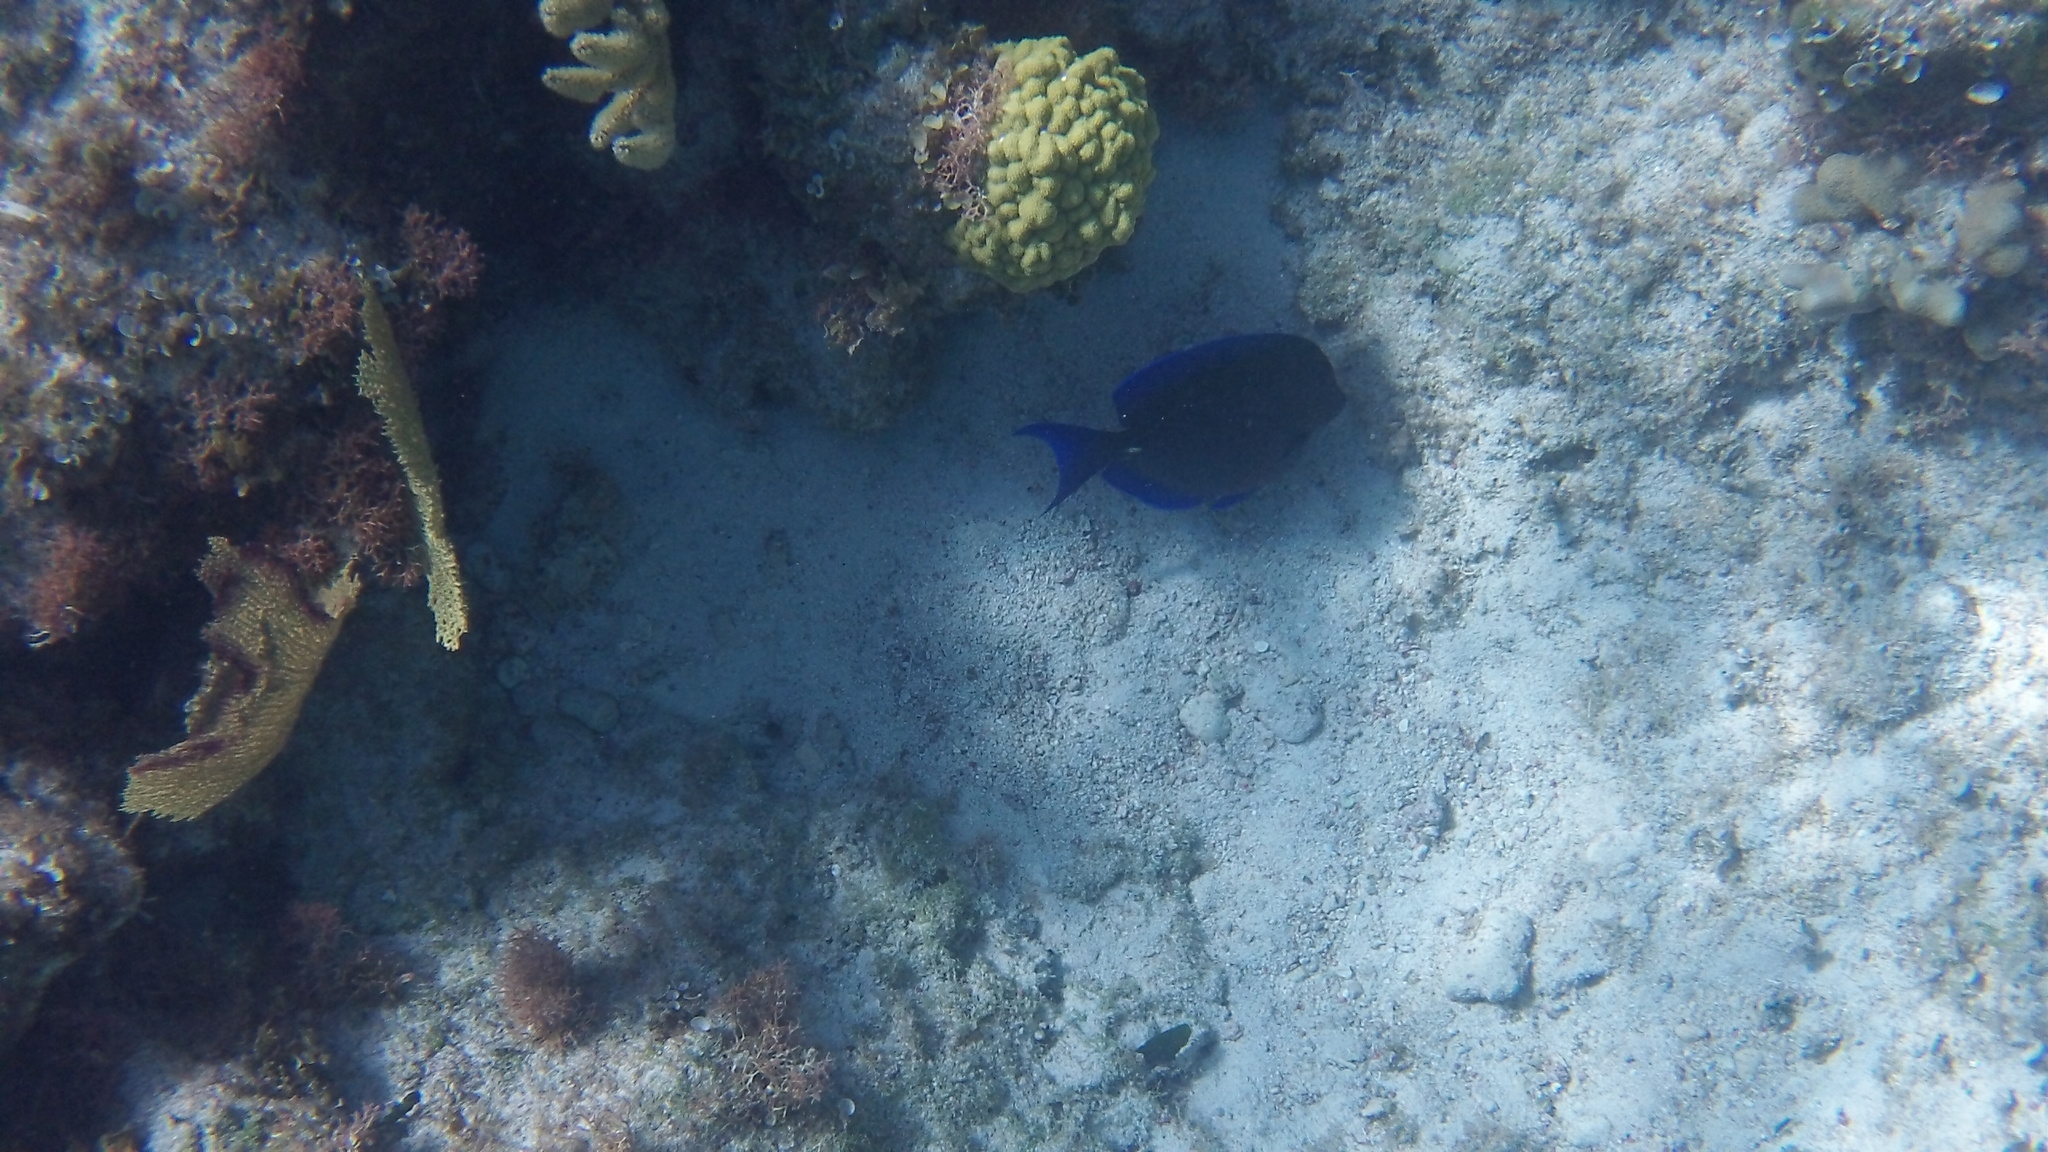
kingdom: Animalia
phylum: Chordata
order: Perciformes
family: Acanthuridae
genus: Acanthurus
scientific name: Acanthurus coeruleus
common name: Blue tang
